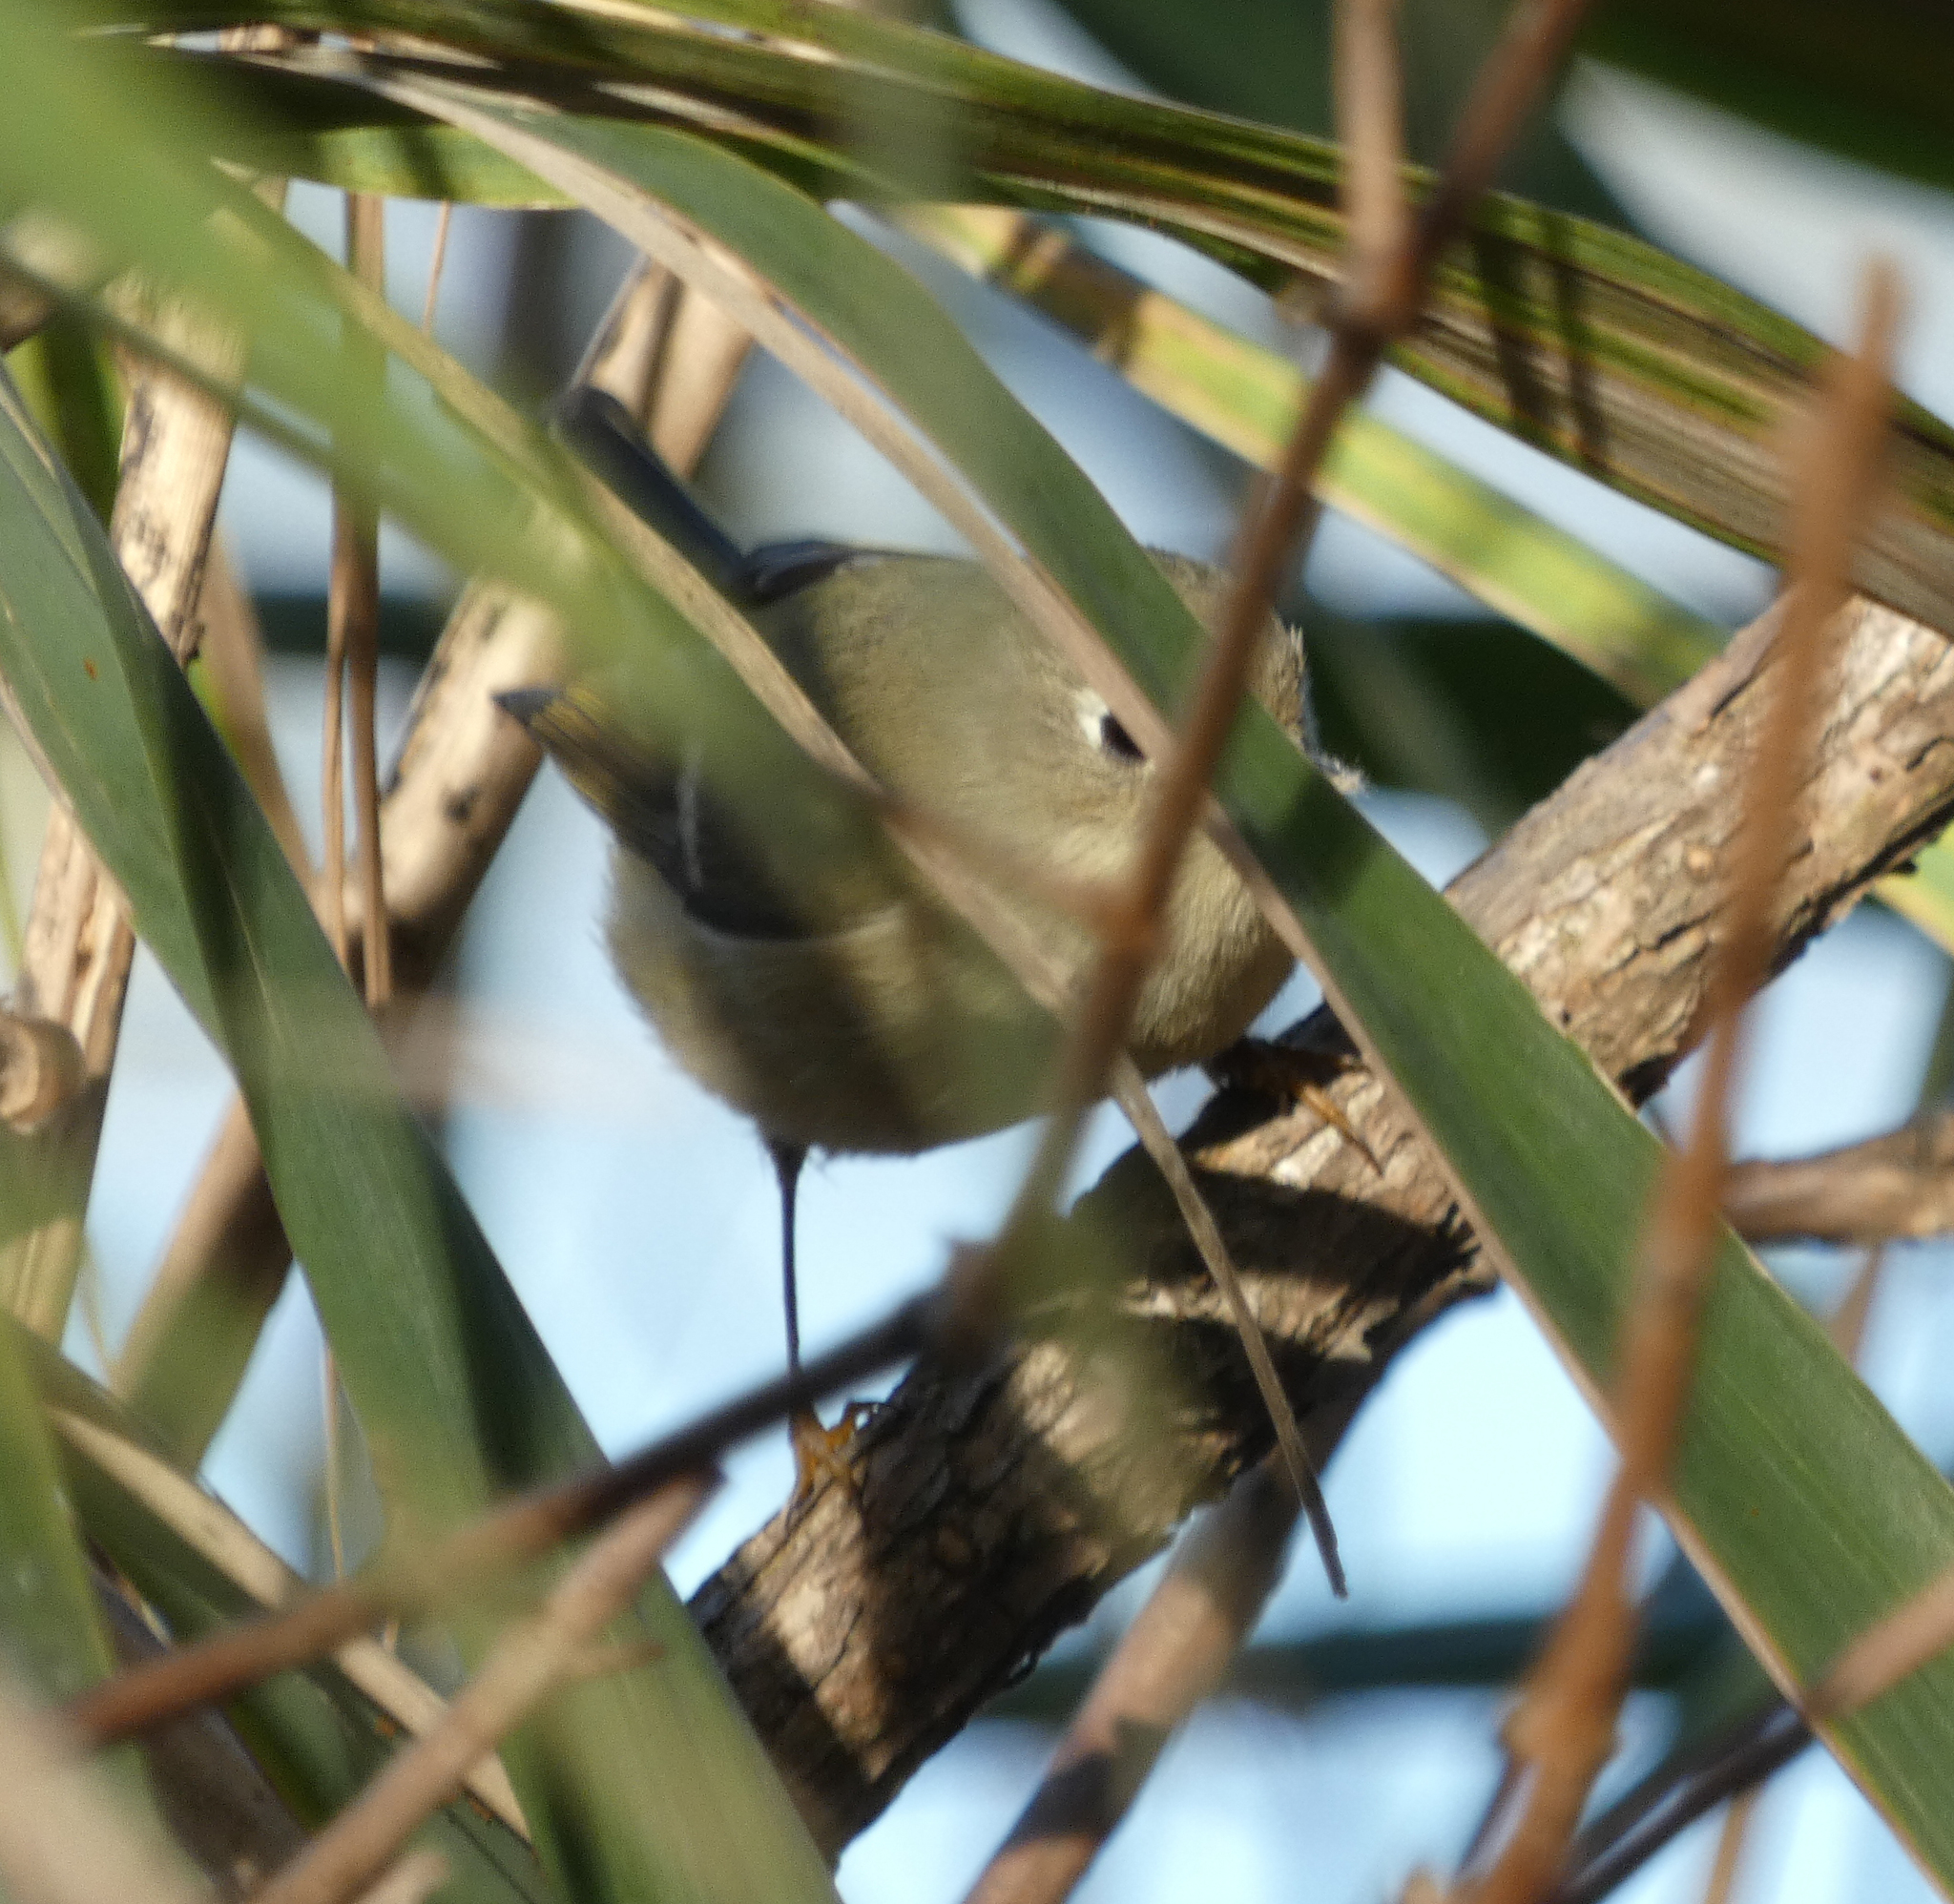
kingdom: Animalia
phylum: Chordata
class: Aves
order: Passeriformes
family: Regulidae
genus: Regulus
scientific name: Regulus calendula
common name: Ruby-crowned kinglet
